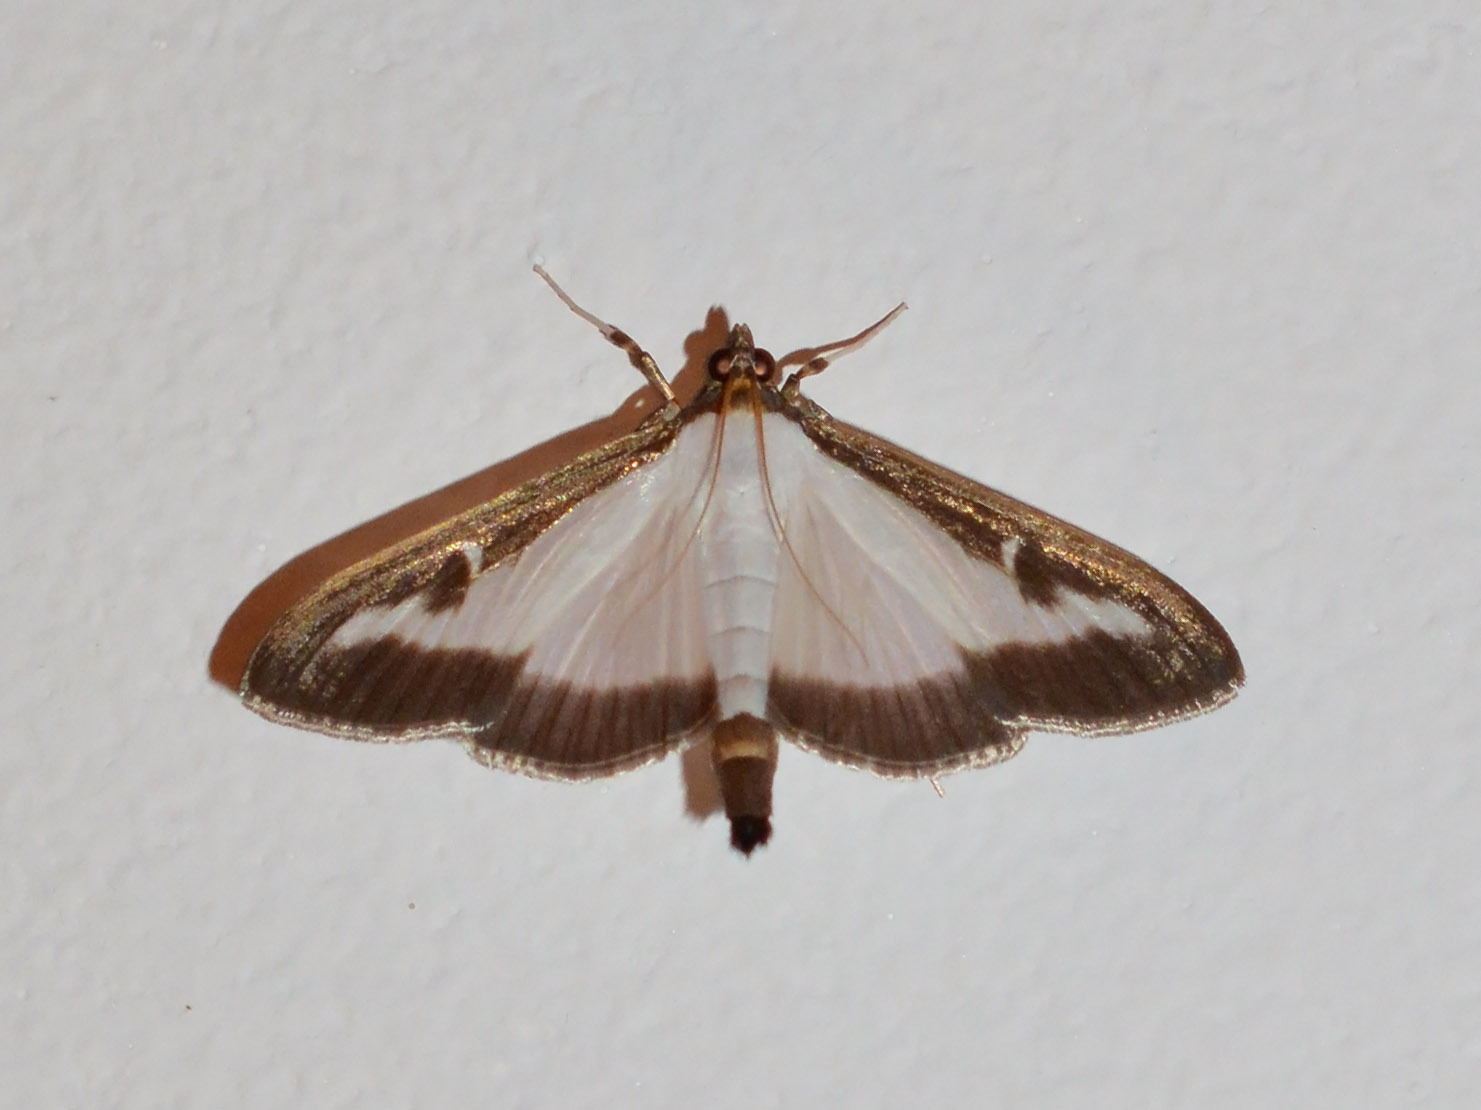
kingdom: Animalia
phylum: Arthropoda
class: Insecta
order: Lepidoptera
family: Crambidae
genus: Cydalima
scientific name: Cydalima perspectalis
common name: Box tree moth
